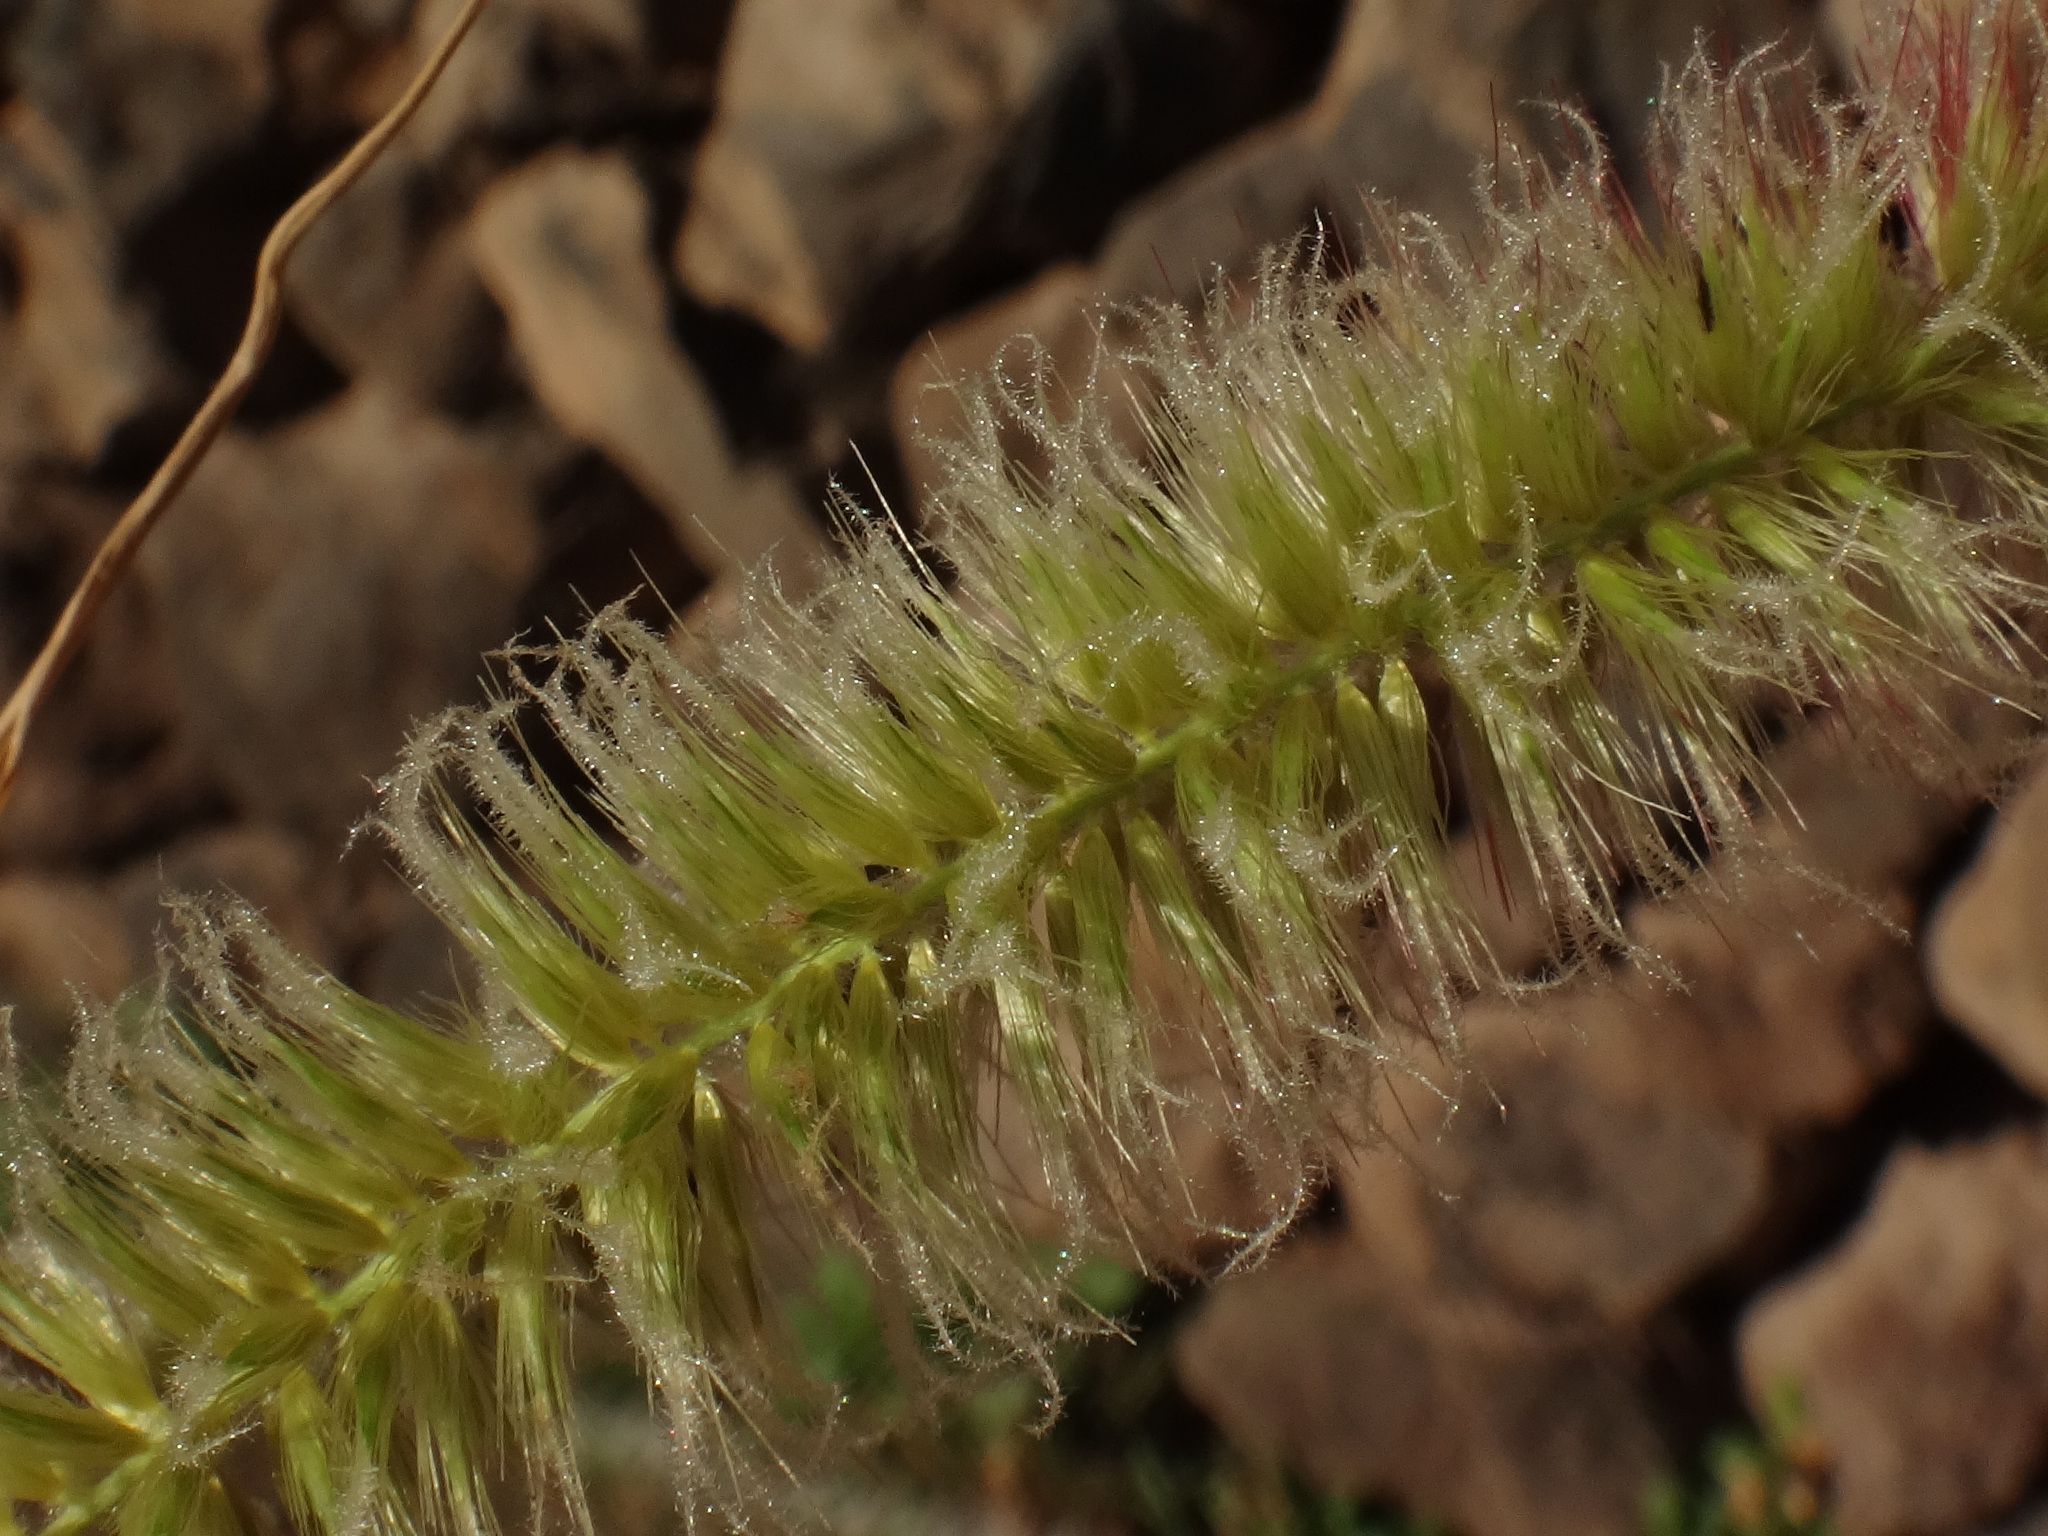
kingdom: Plantae
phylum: Tracheophyta
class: Liliopsida
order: Poales
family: Poaceae
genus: Cenchrus
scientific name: Cenchrus purpureus
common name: Elephant grass
